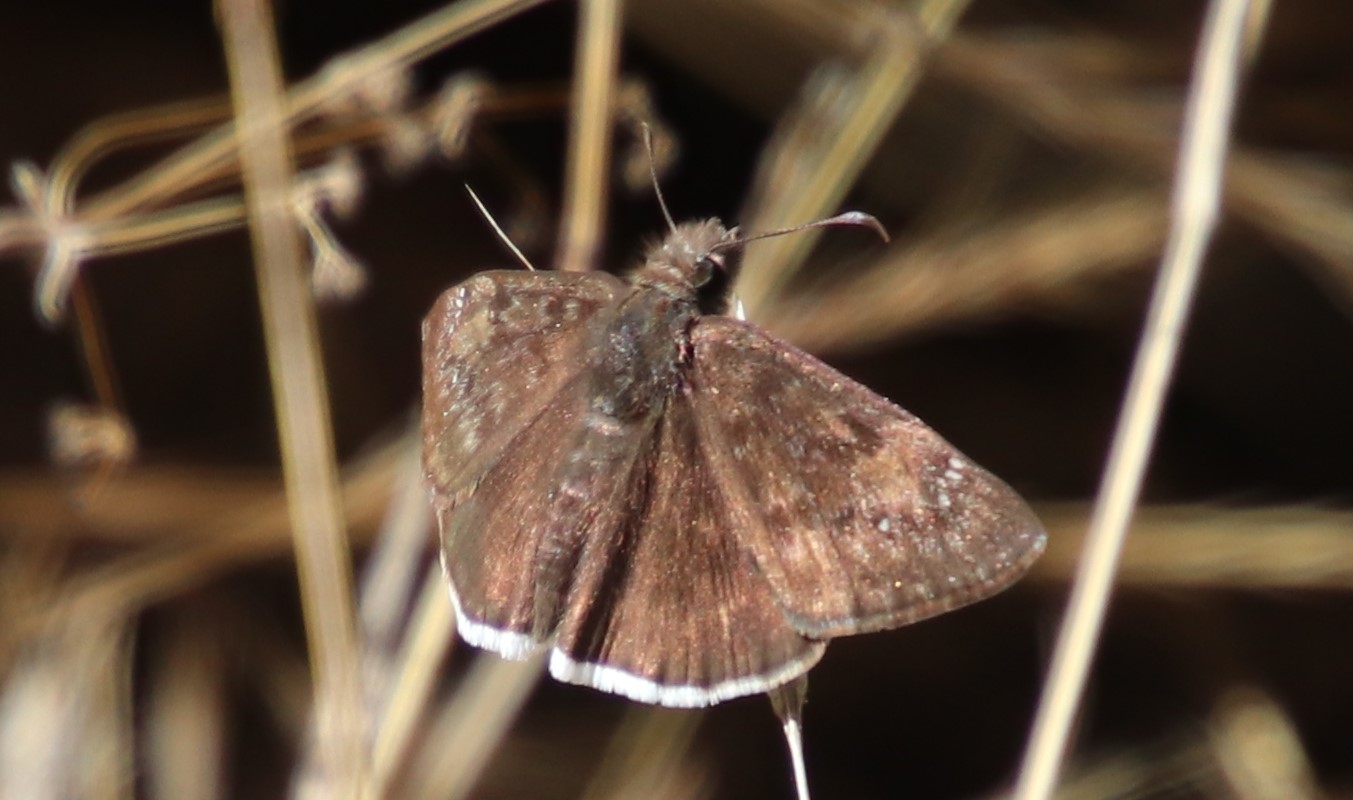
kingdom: Animalia
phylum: Arthropoda
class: Insecta
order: Lepidoptera
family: Hesperiidae
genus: Erynnis
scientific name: Erynnis tristis
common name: Mournful duskywing
